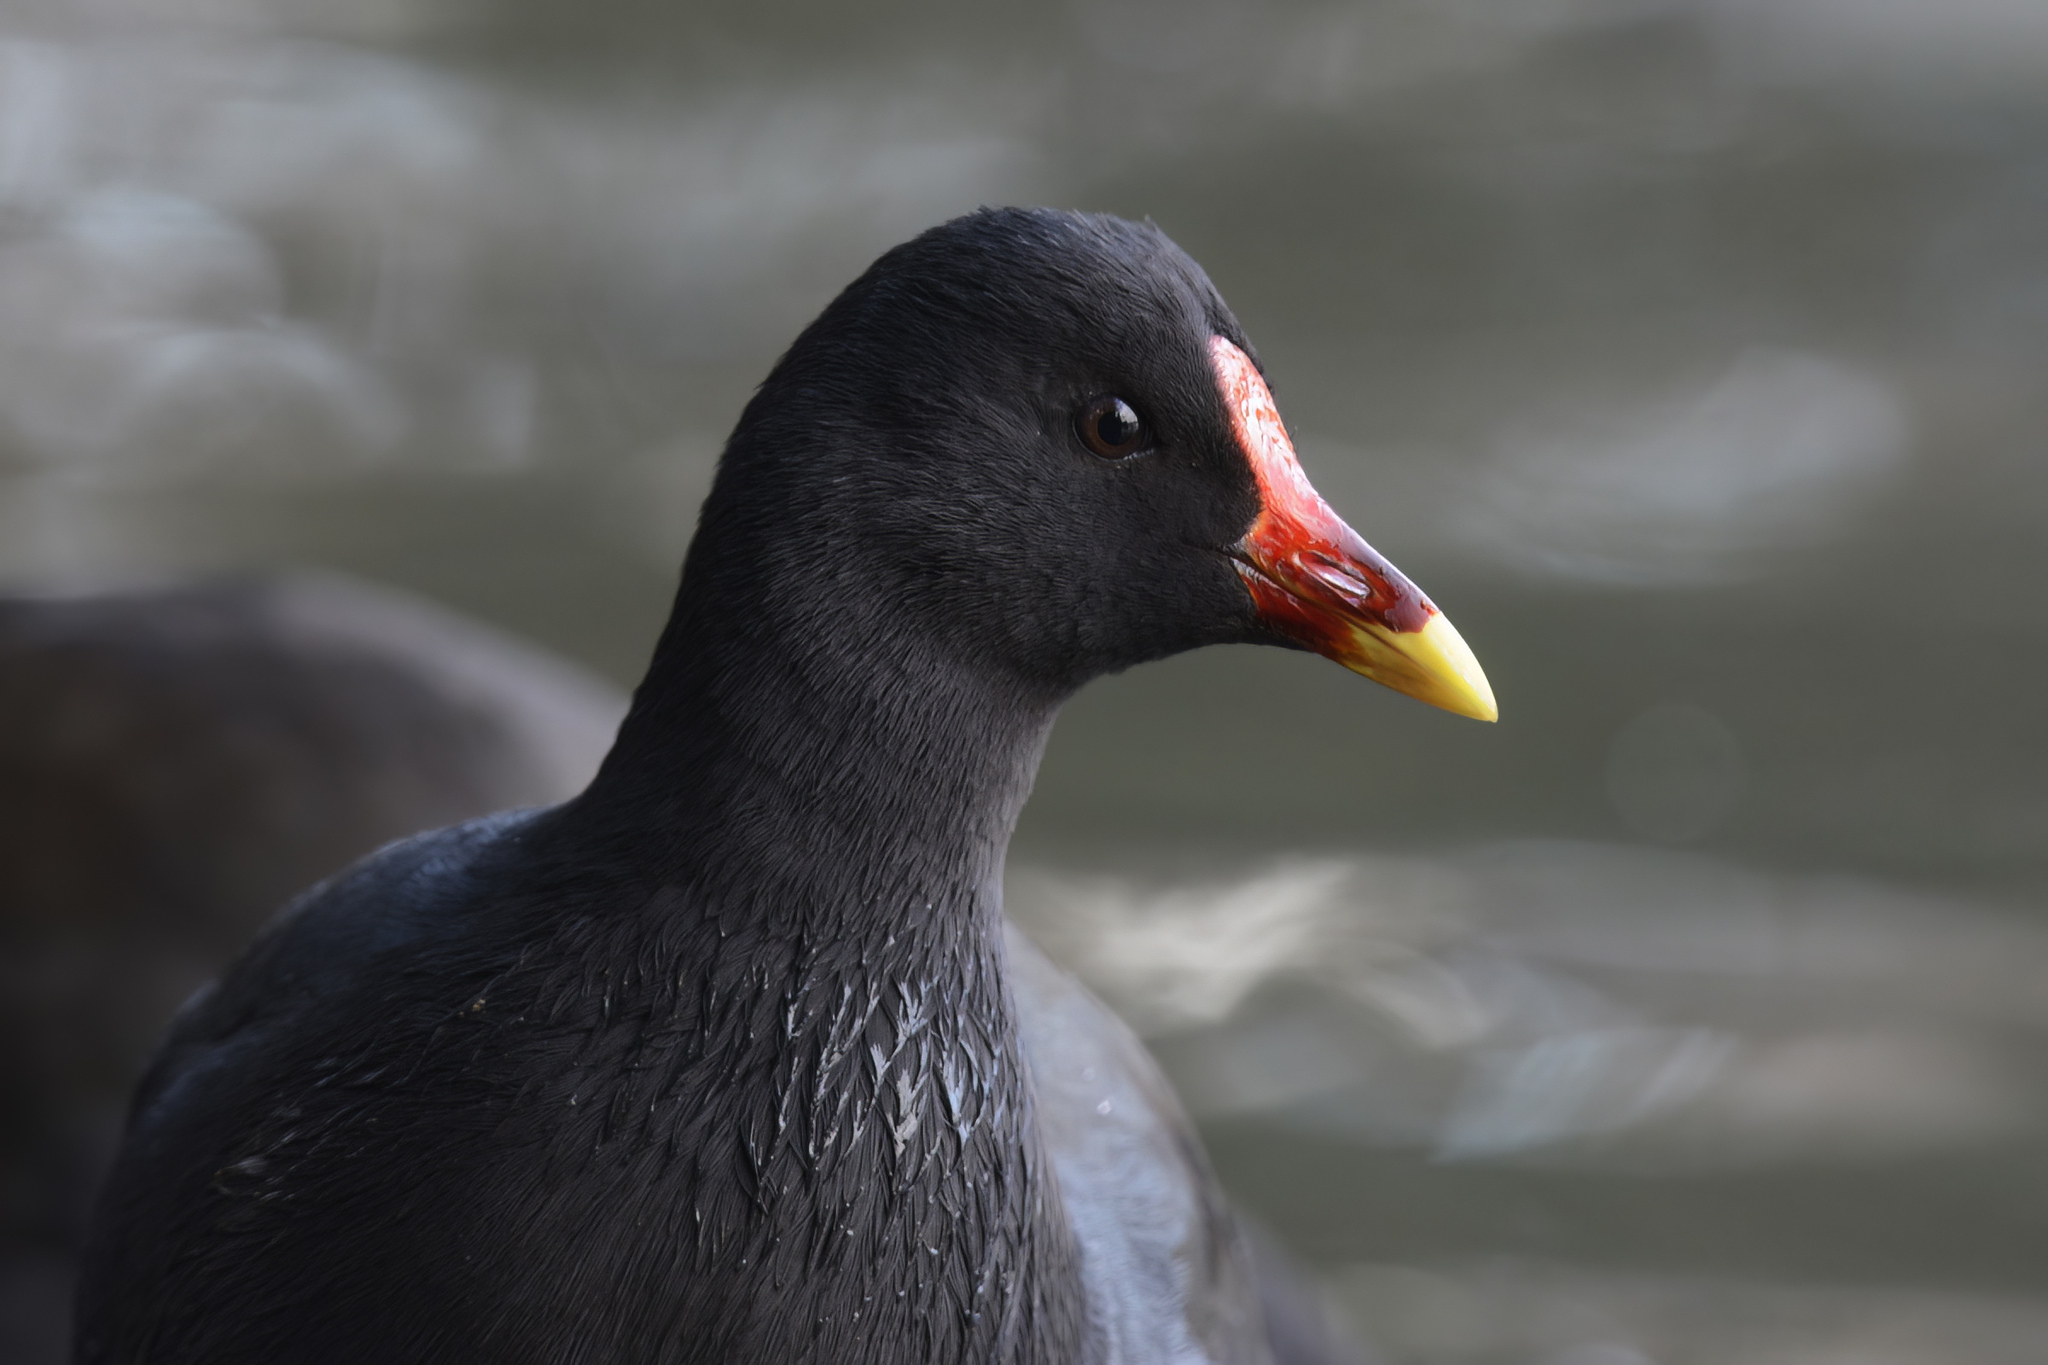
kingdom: Animalia
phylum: Chordata
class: Aves
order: Gruiformes
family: Rallidae
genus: Gallinula
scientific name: Gallinula tenebrosa
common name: Dusky moorhen
